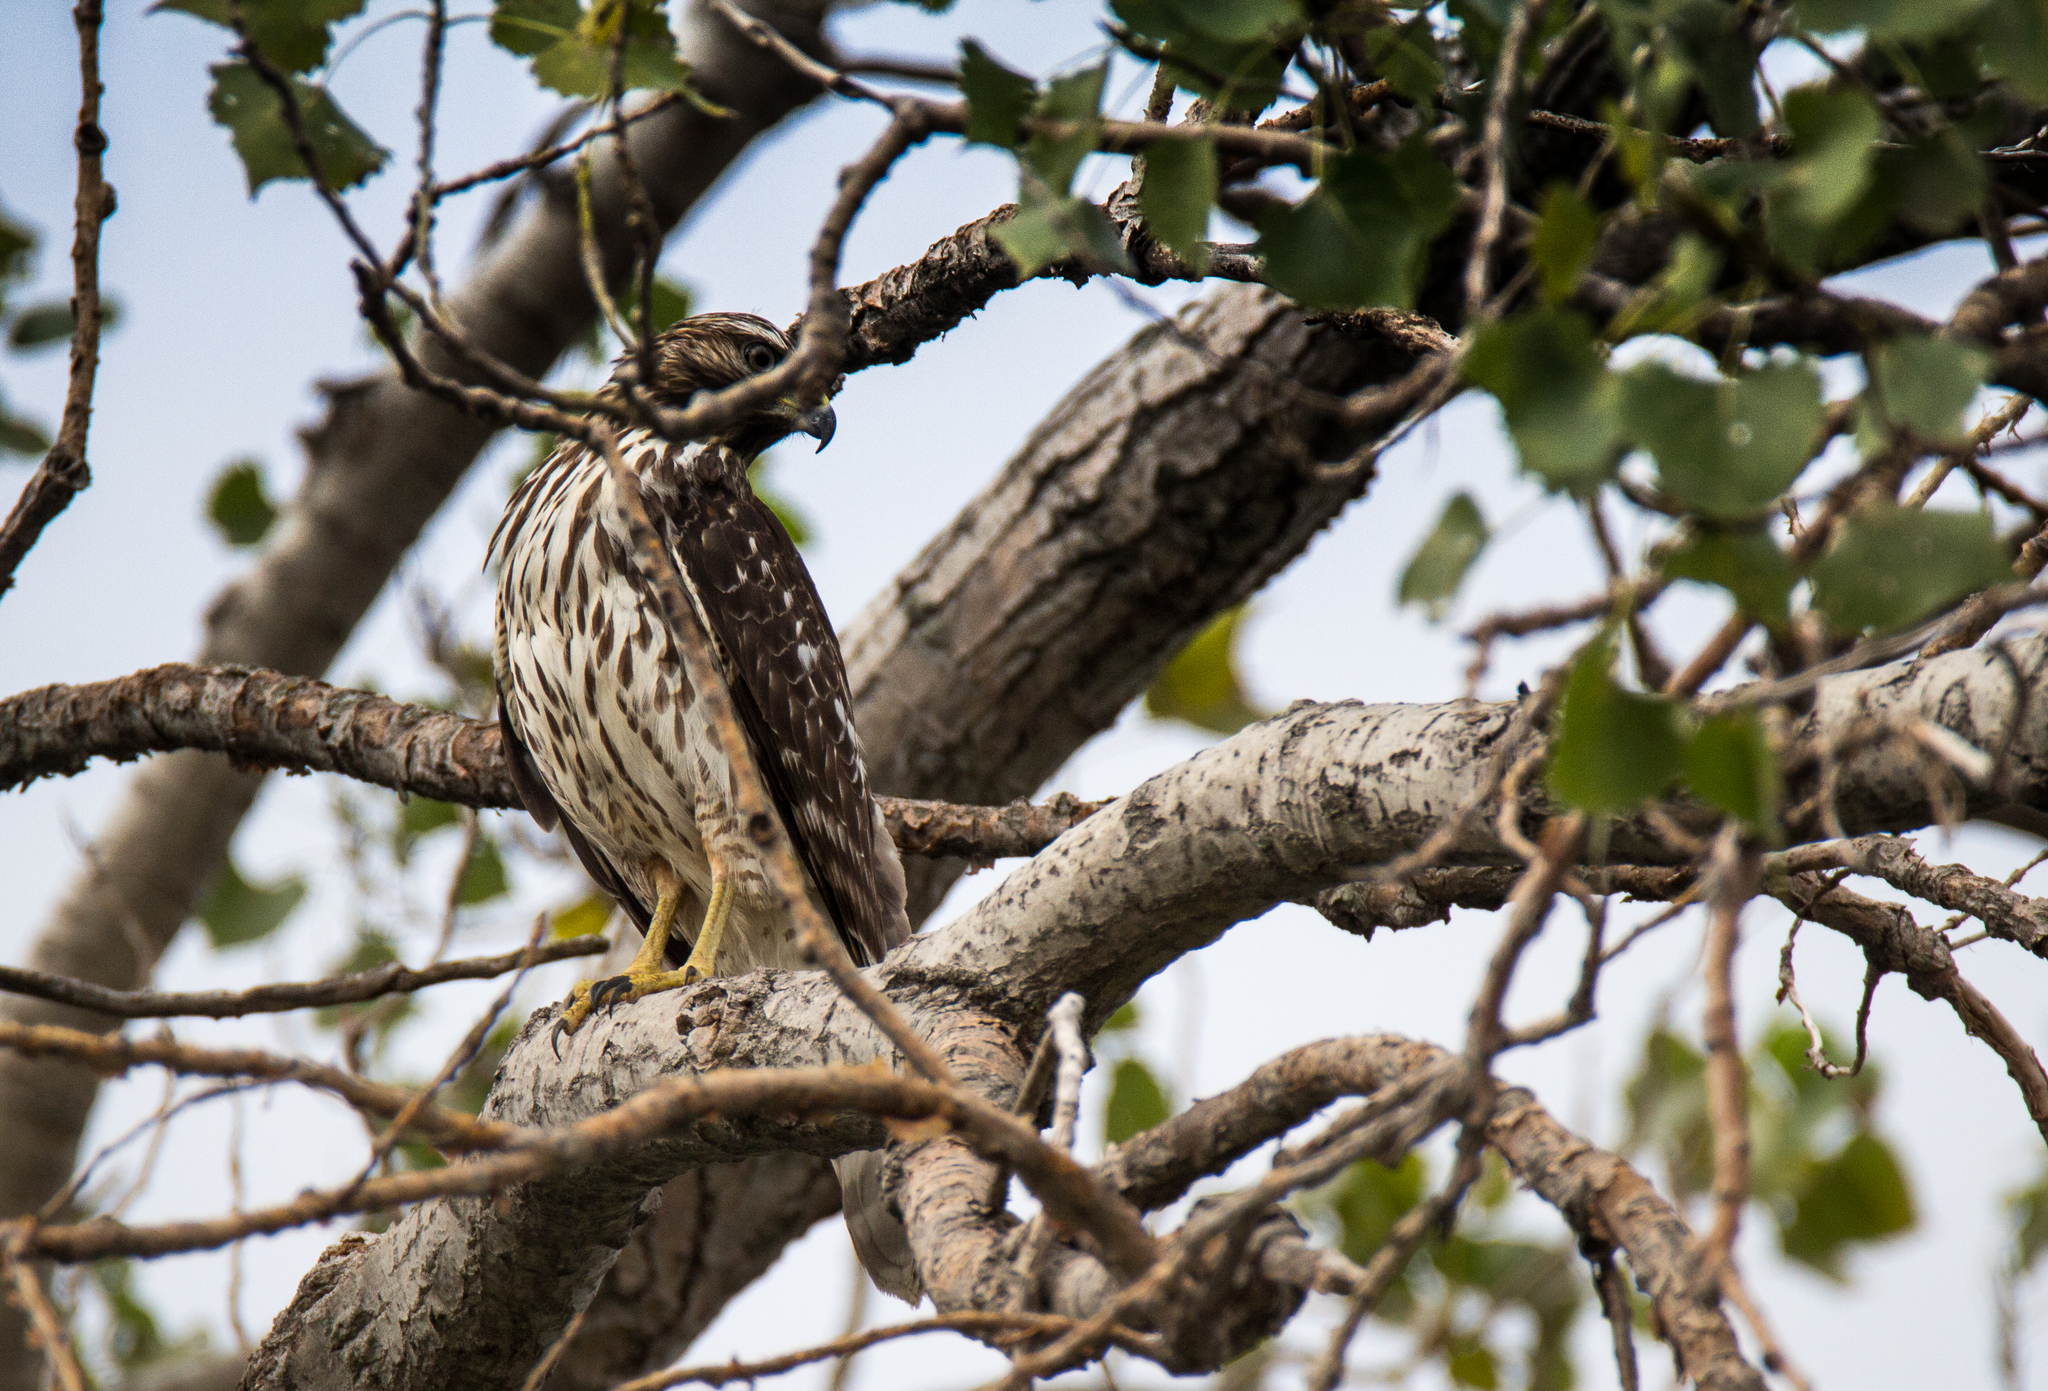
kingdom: Animalia
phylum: Chordata
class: Aves
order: Accipitriformes
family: Accipitridae
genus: Buteo
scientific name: Buteo lineatus
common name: Red-shouldered hawk
